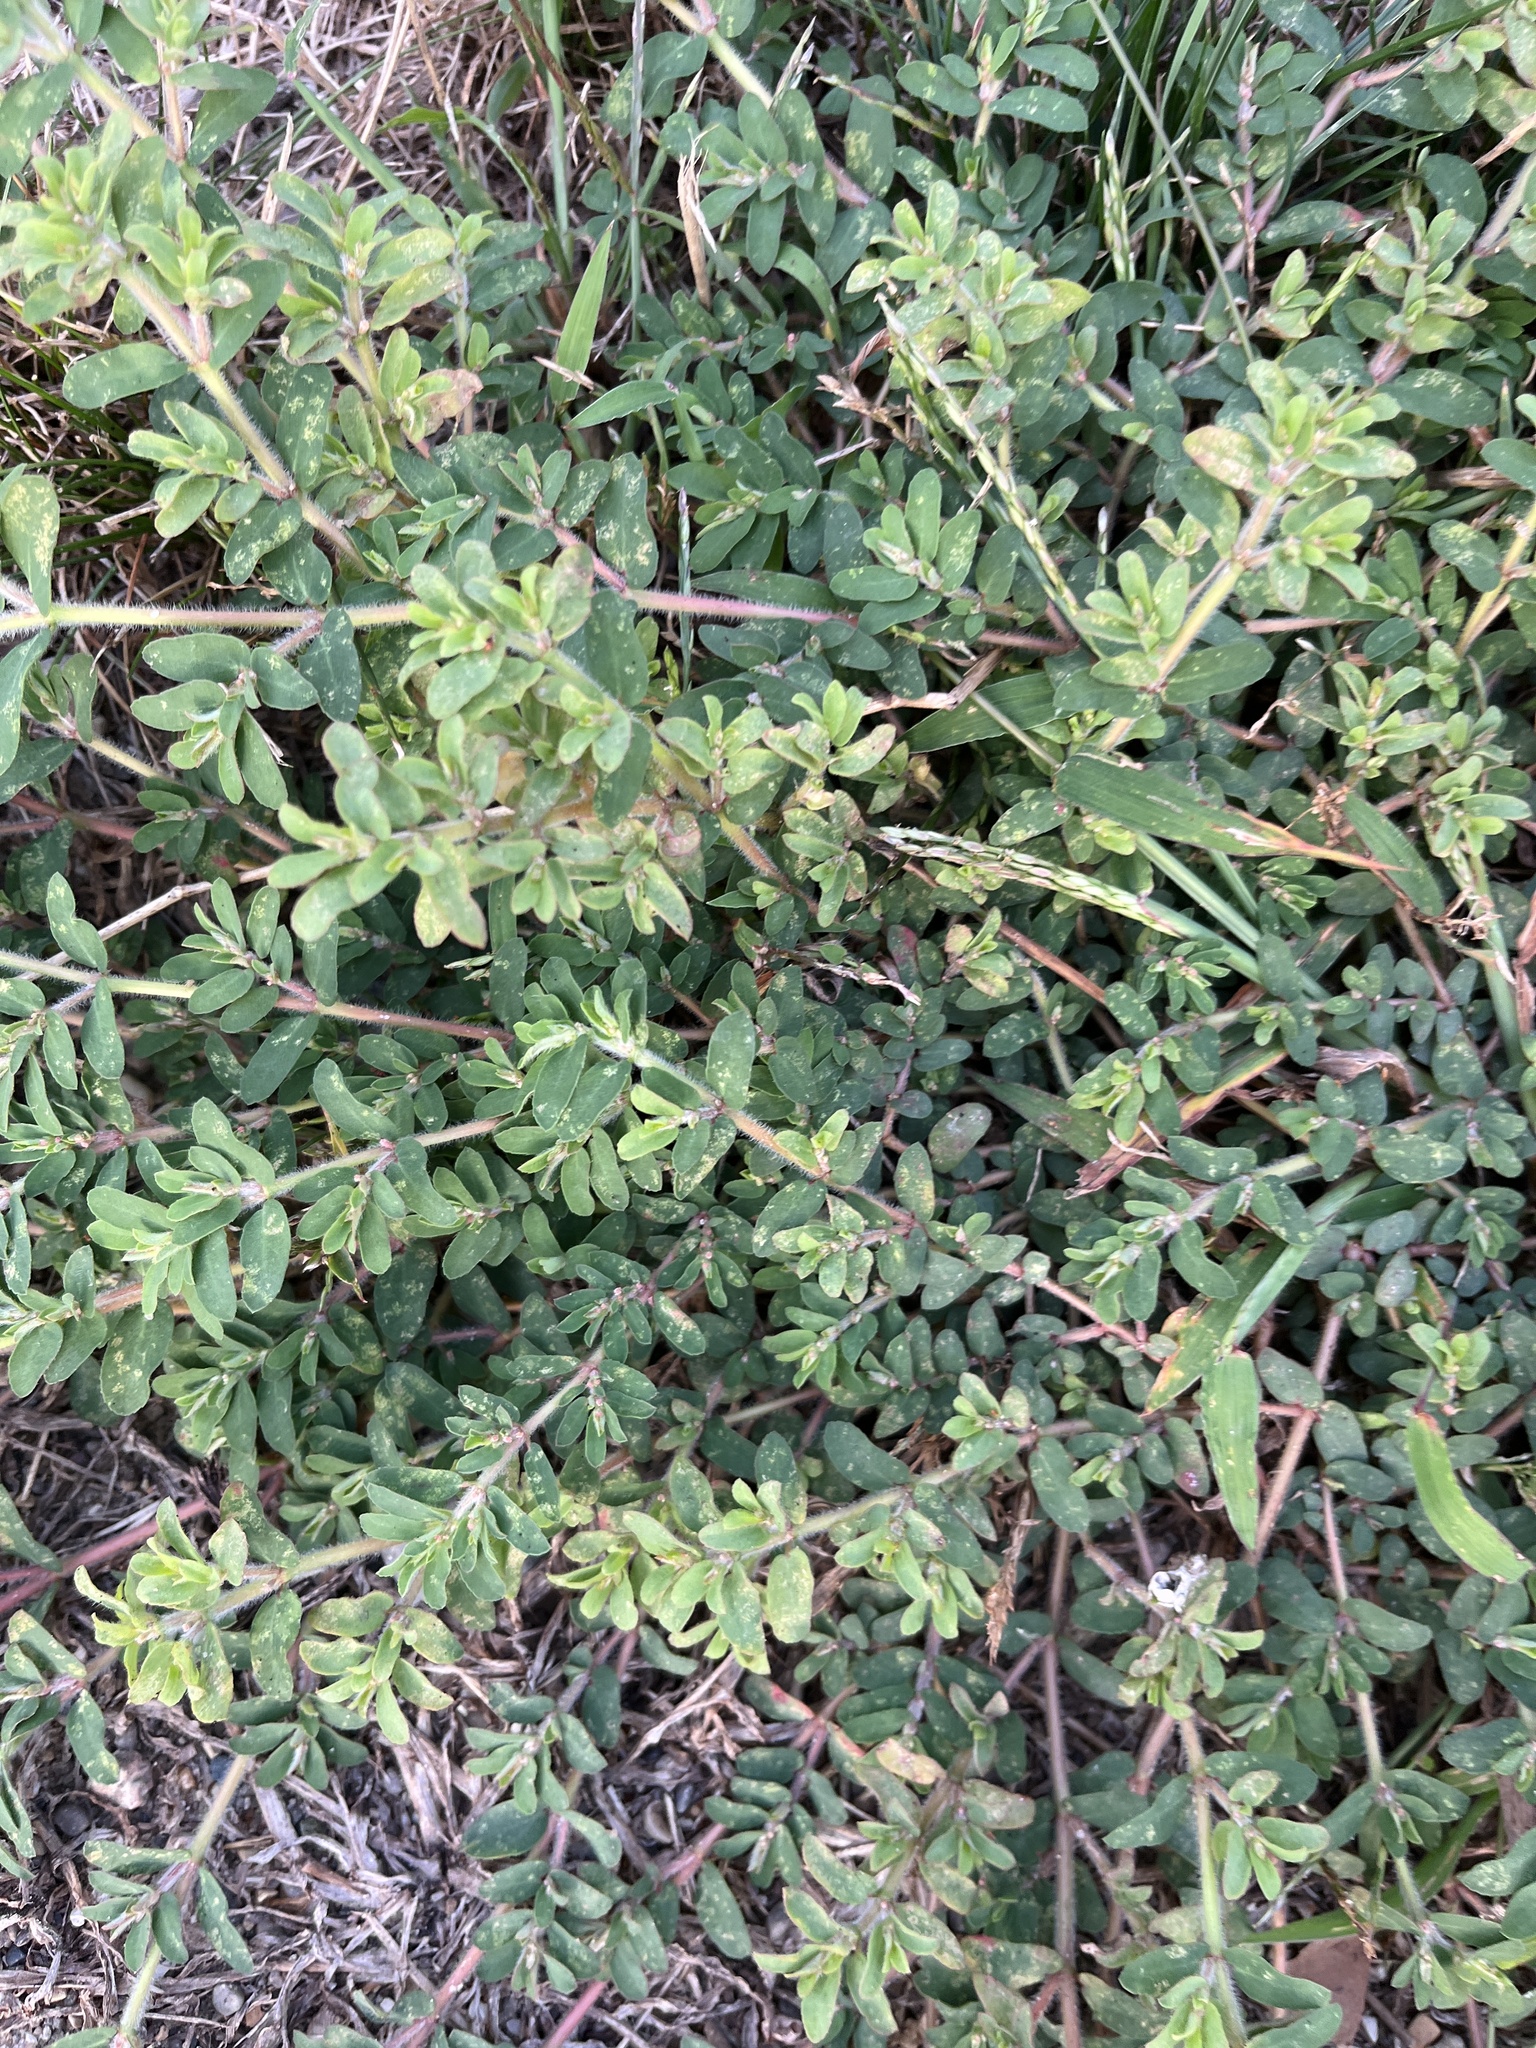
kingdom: Plantae
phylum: Tracheophyta
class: Magnoliopsida
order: Malpighiales
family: Euphorbiaceae
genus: Euphorbia
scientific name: Euphorbia maculata
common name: Spotted spurge
